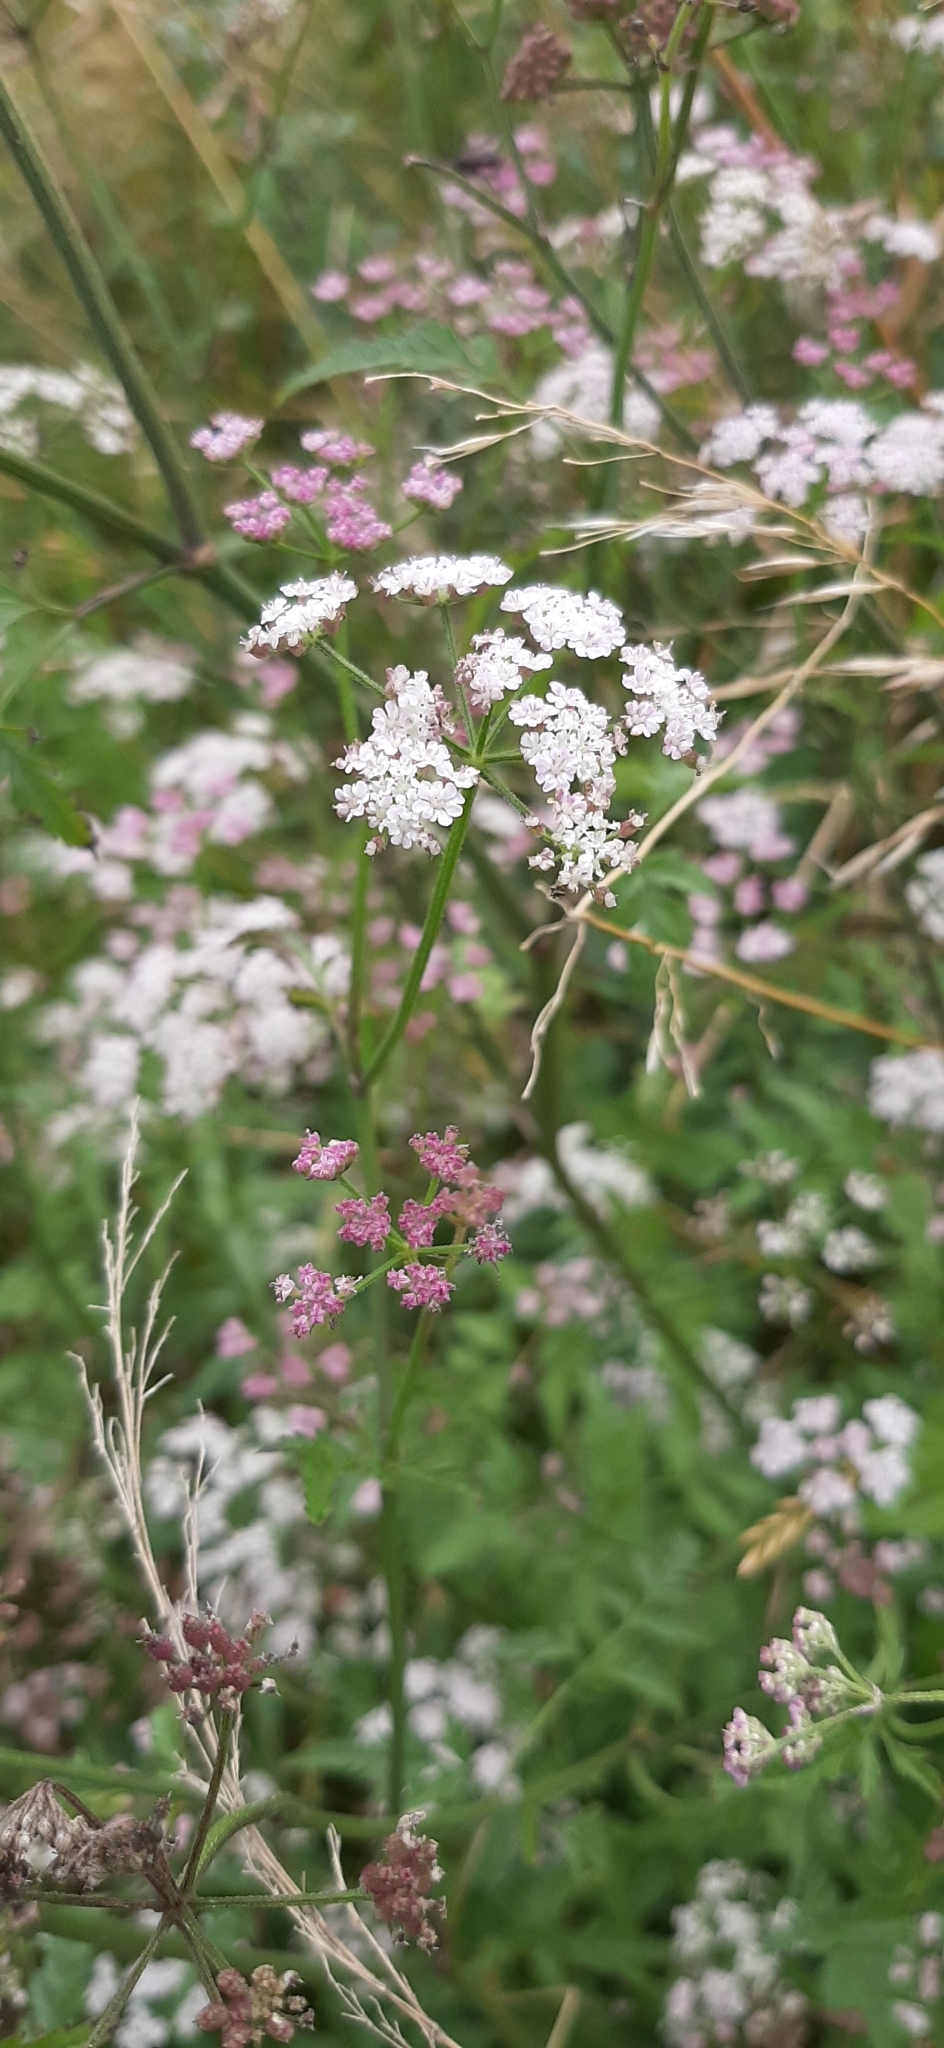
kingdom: Plantae
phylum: Tracheophyta
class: Magnoliopsida
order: Apiales
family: Apiaceae
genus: Torilis
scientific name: Torilis japonica
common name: Upright hedge-parsley
